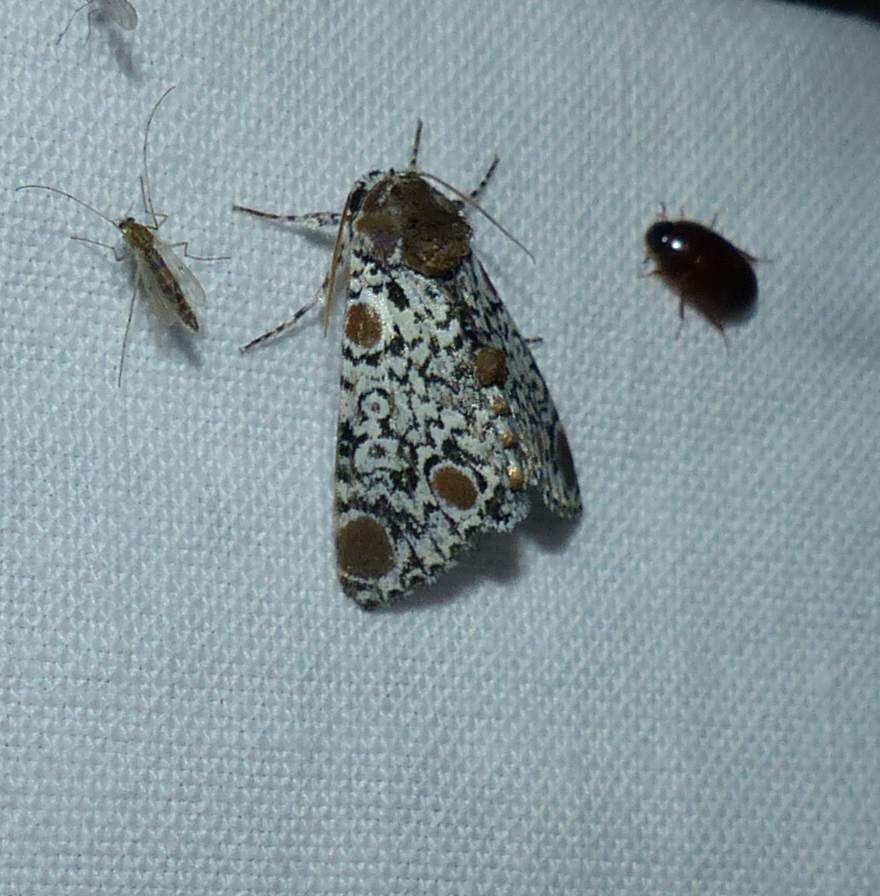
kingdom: Animalia
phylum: Arthropoda
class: Insecta
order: Lepidoptera
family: Noctuidae
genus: Harrisimemna
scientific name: Harrisimemna trisignata
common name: Harris threespot
